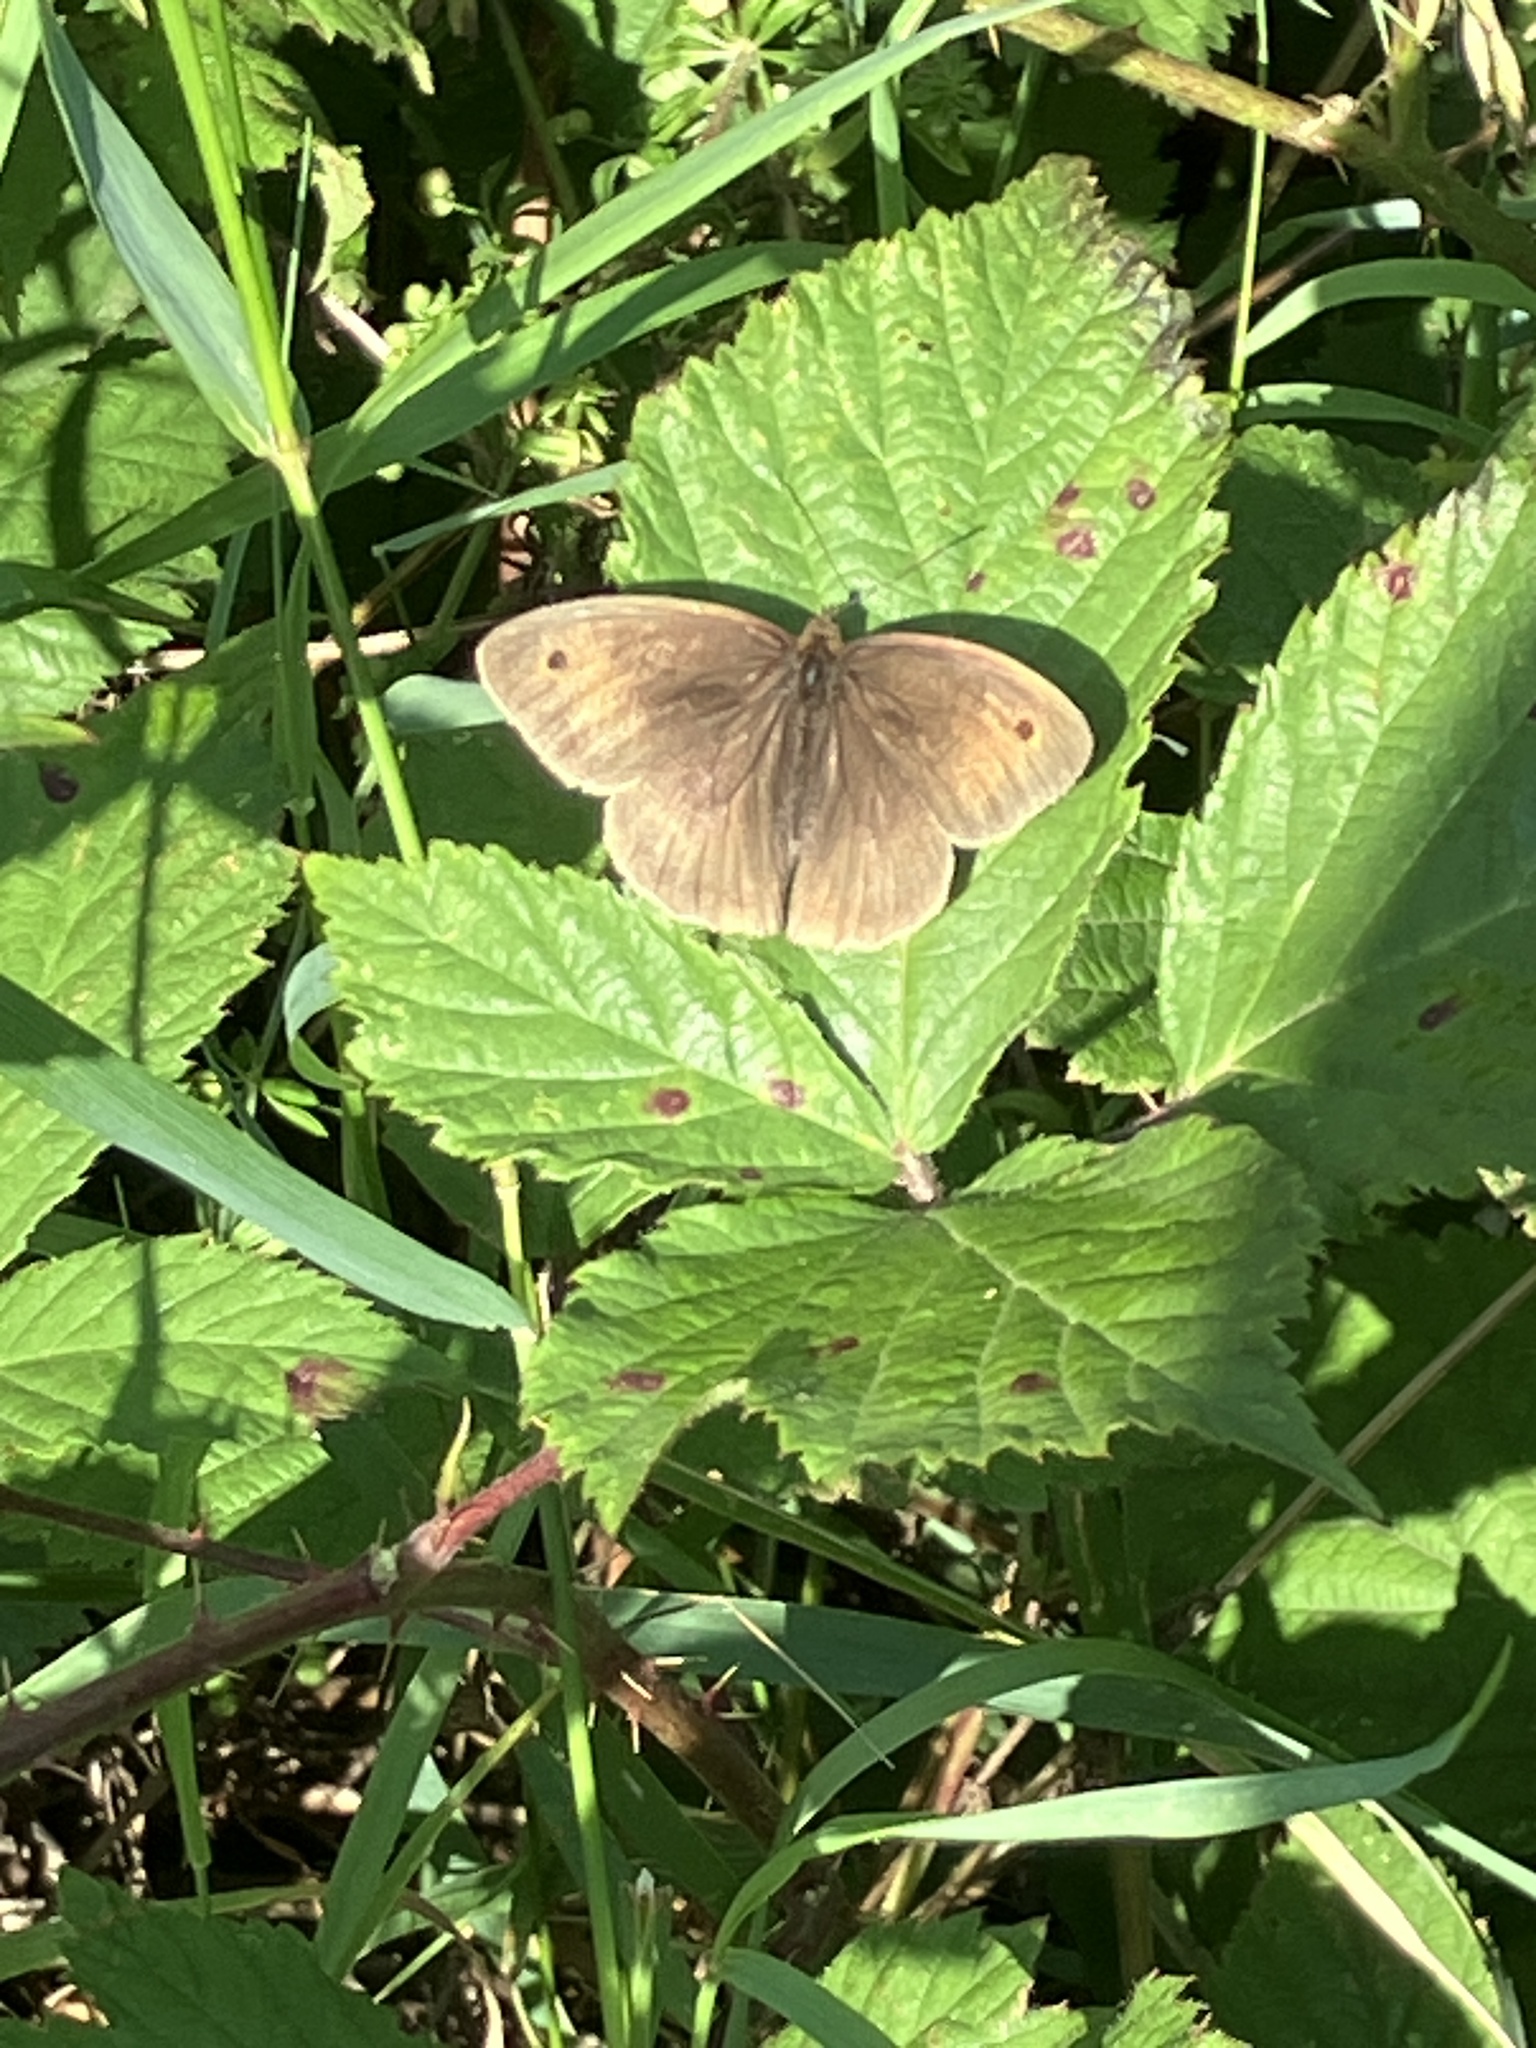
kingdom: Animalia
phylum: Arthropoda
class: Insecta
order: Lepidoptera
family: Nymphalidae
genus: Maniola
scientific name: Maniola jurtina
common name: Meadow brown
